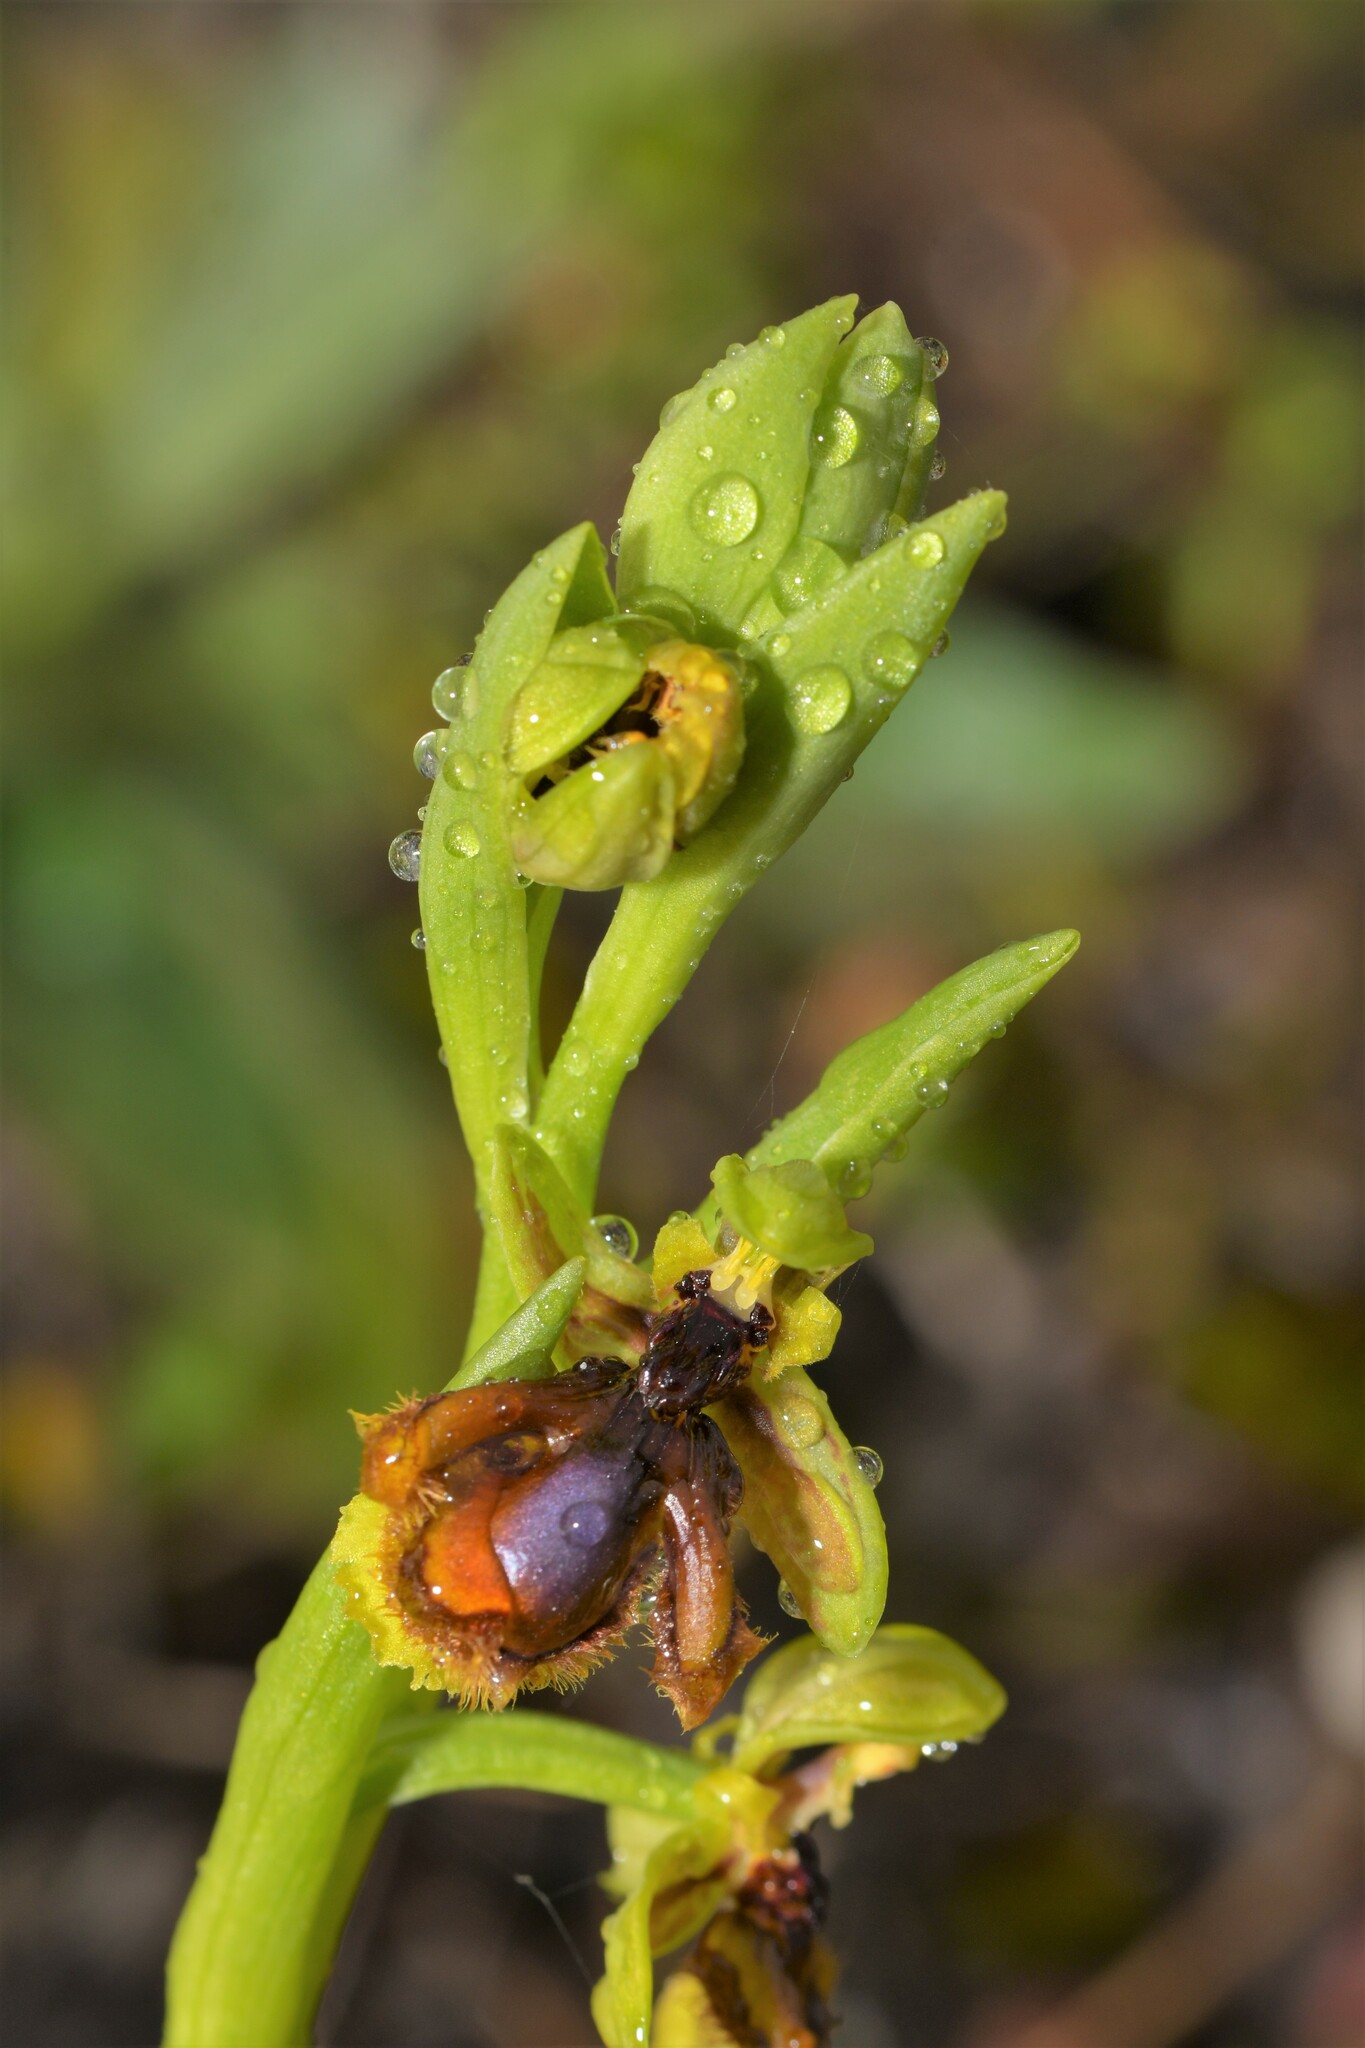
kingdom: Plantae
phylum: Tracheophyta
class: Liliopsida
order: Asparagales
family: Orchidaceae
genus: Ophrys
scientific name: Ophrys speculum
